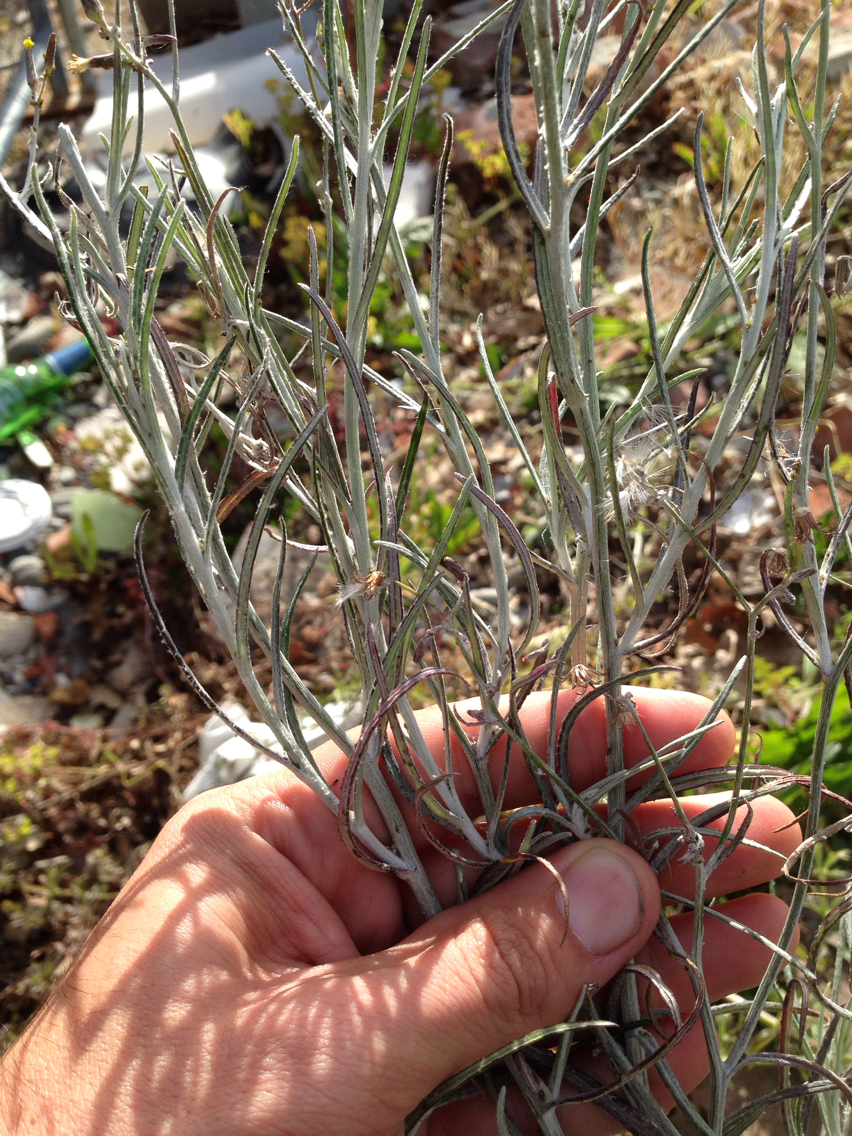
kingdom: Plantae
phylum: Tracheophyta
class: Magnoliopsida
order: Asterales
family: Asteraceae
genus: Senecio
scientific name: Senecio quadridentatus
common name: Cotton fireweed
